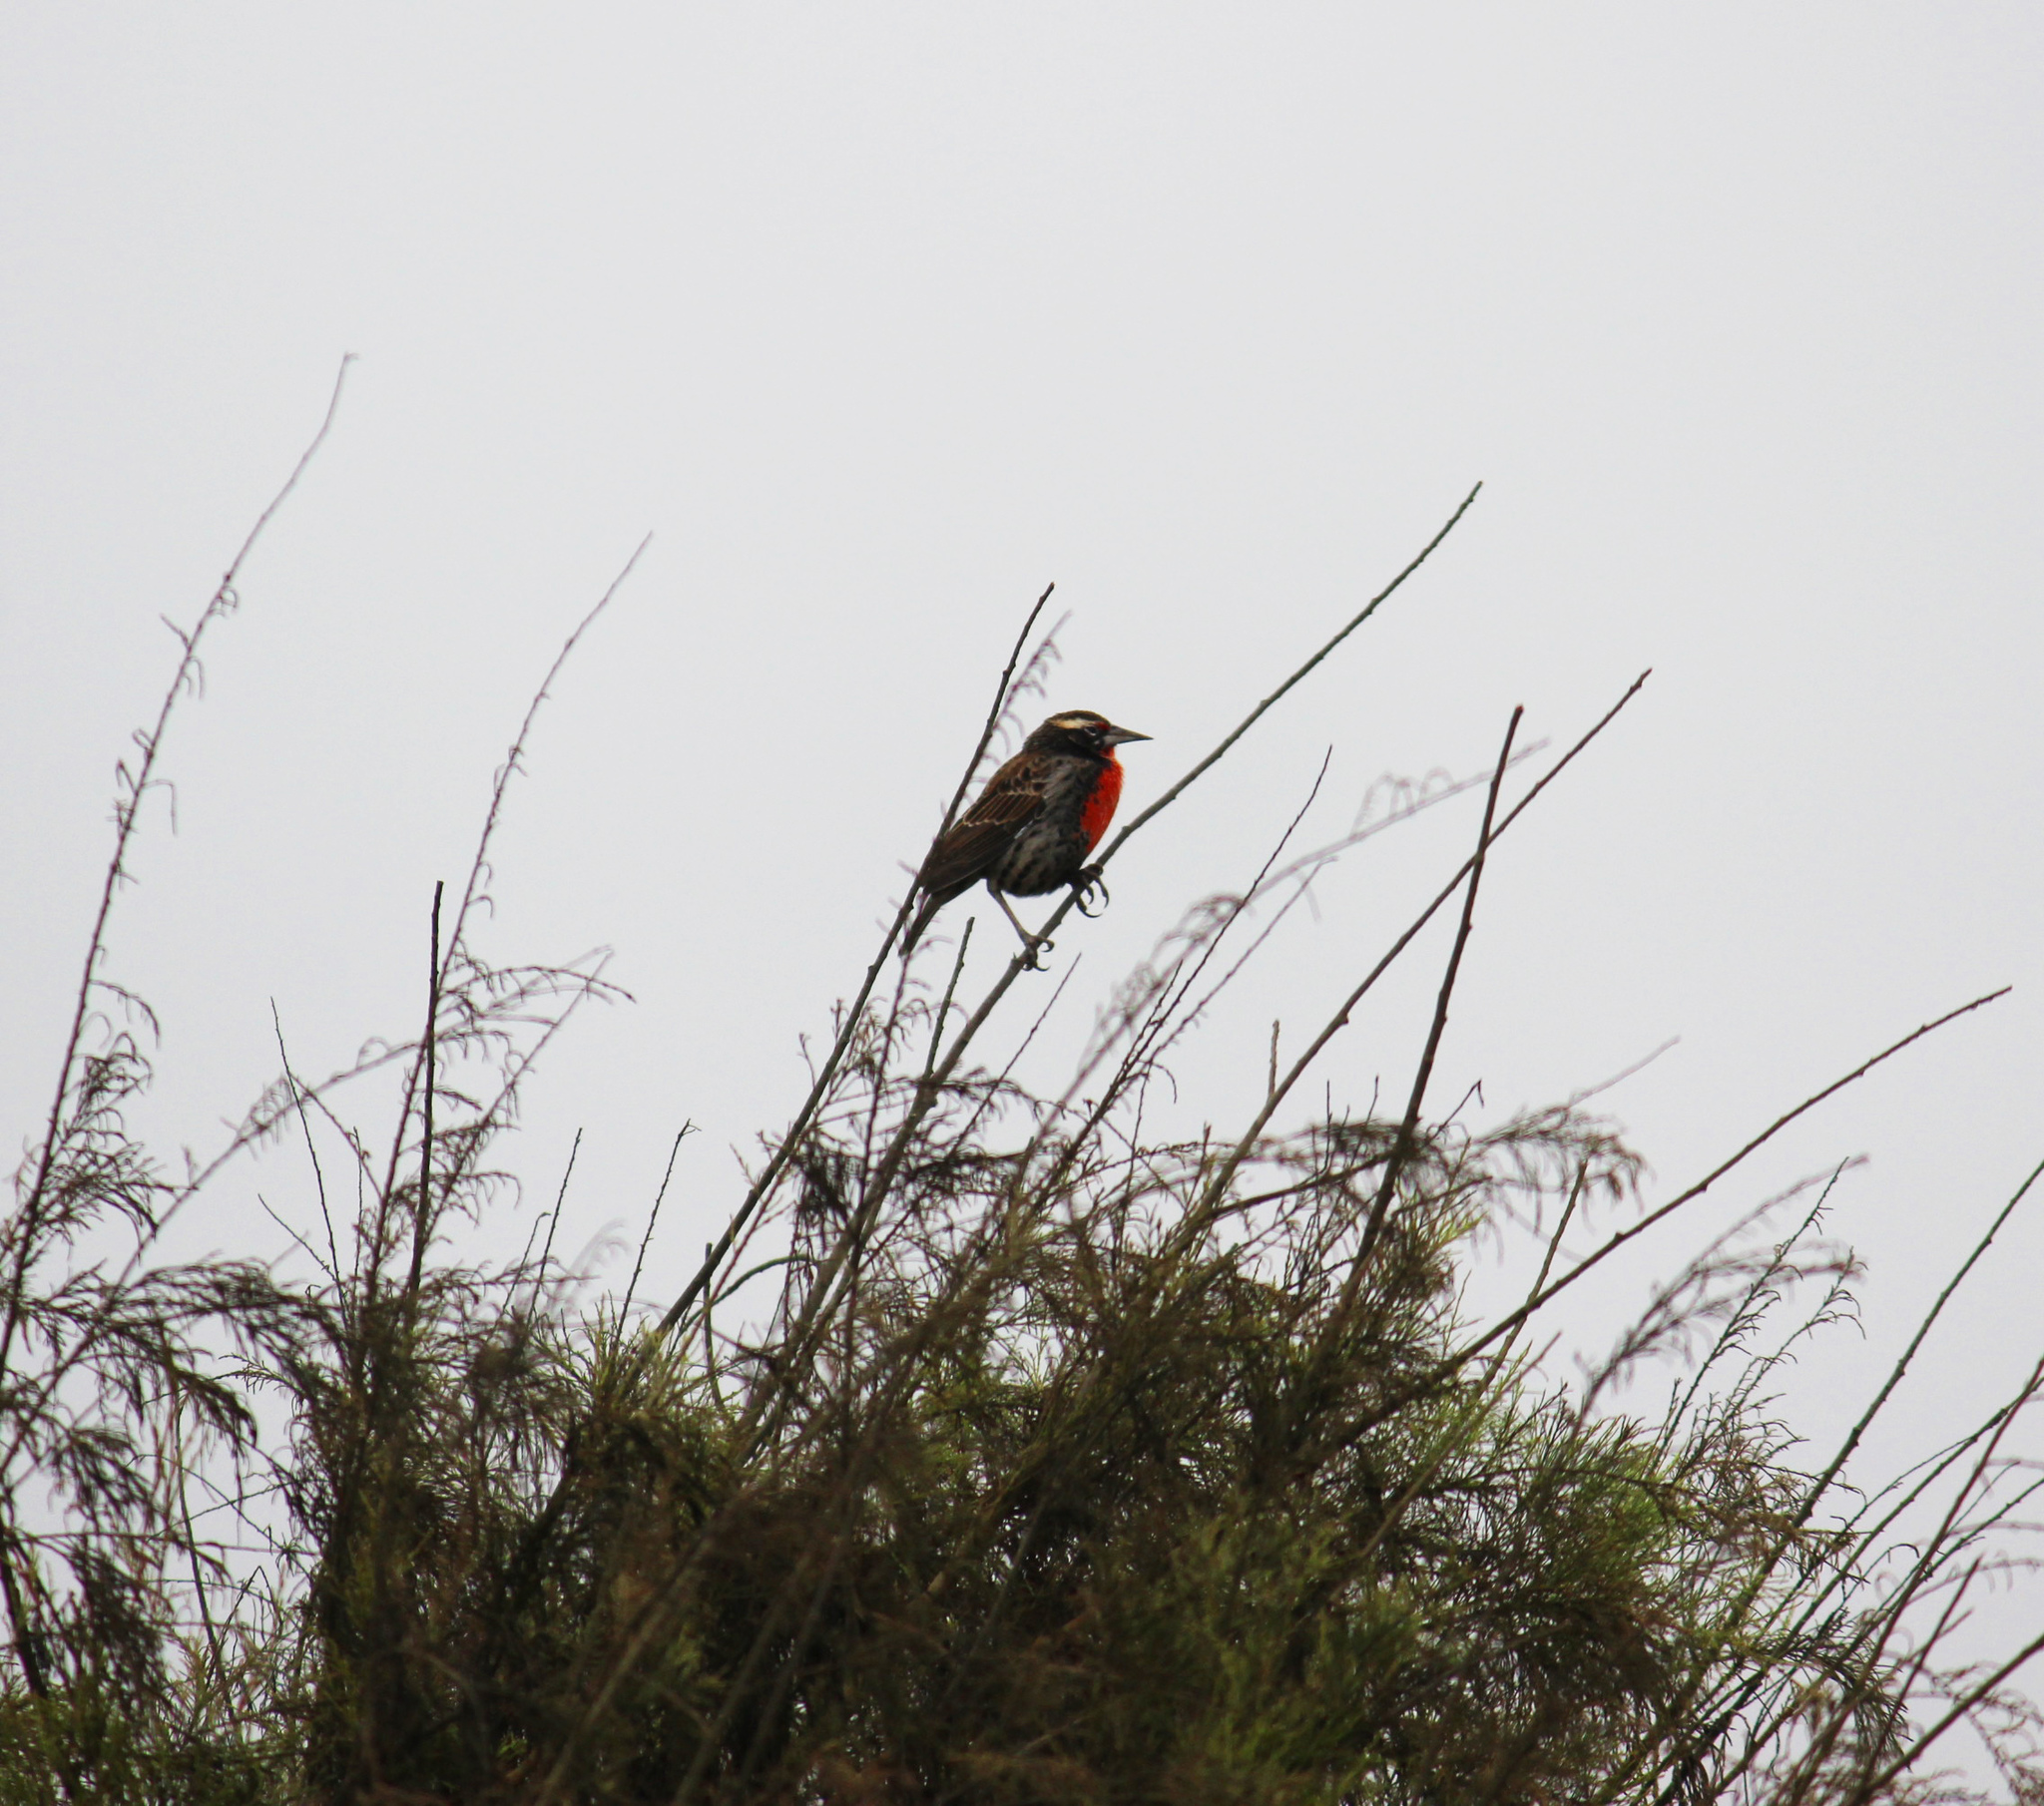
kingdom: Animalia
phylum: Chordata
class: Aves
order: Passeriformes
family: Icteridae
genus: Sturnella
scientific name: Sturnella bellicosa
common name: Peruvian meadowlark
